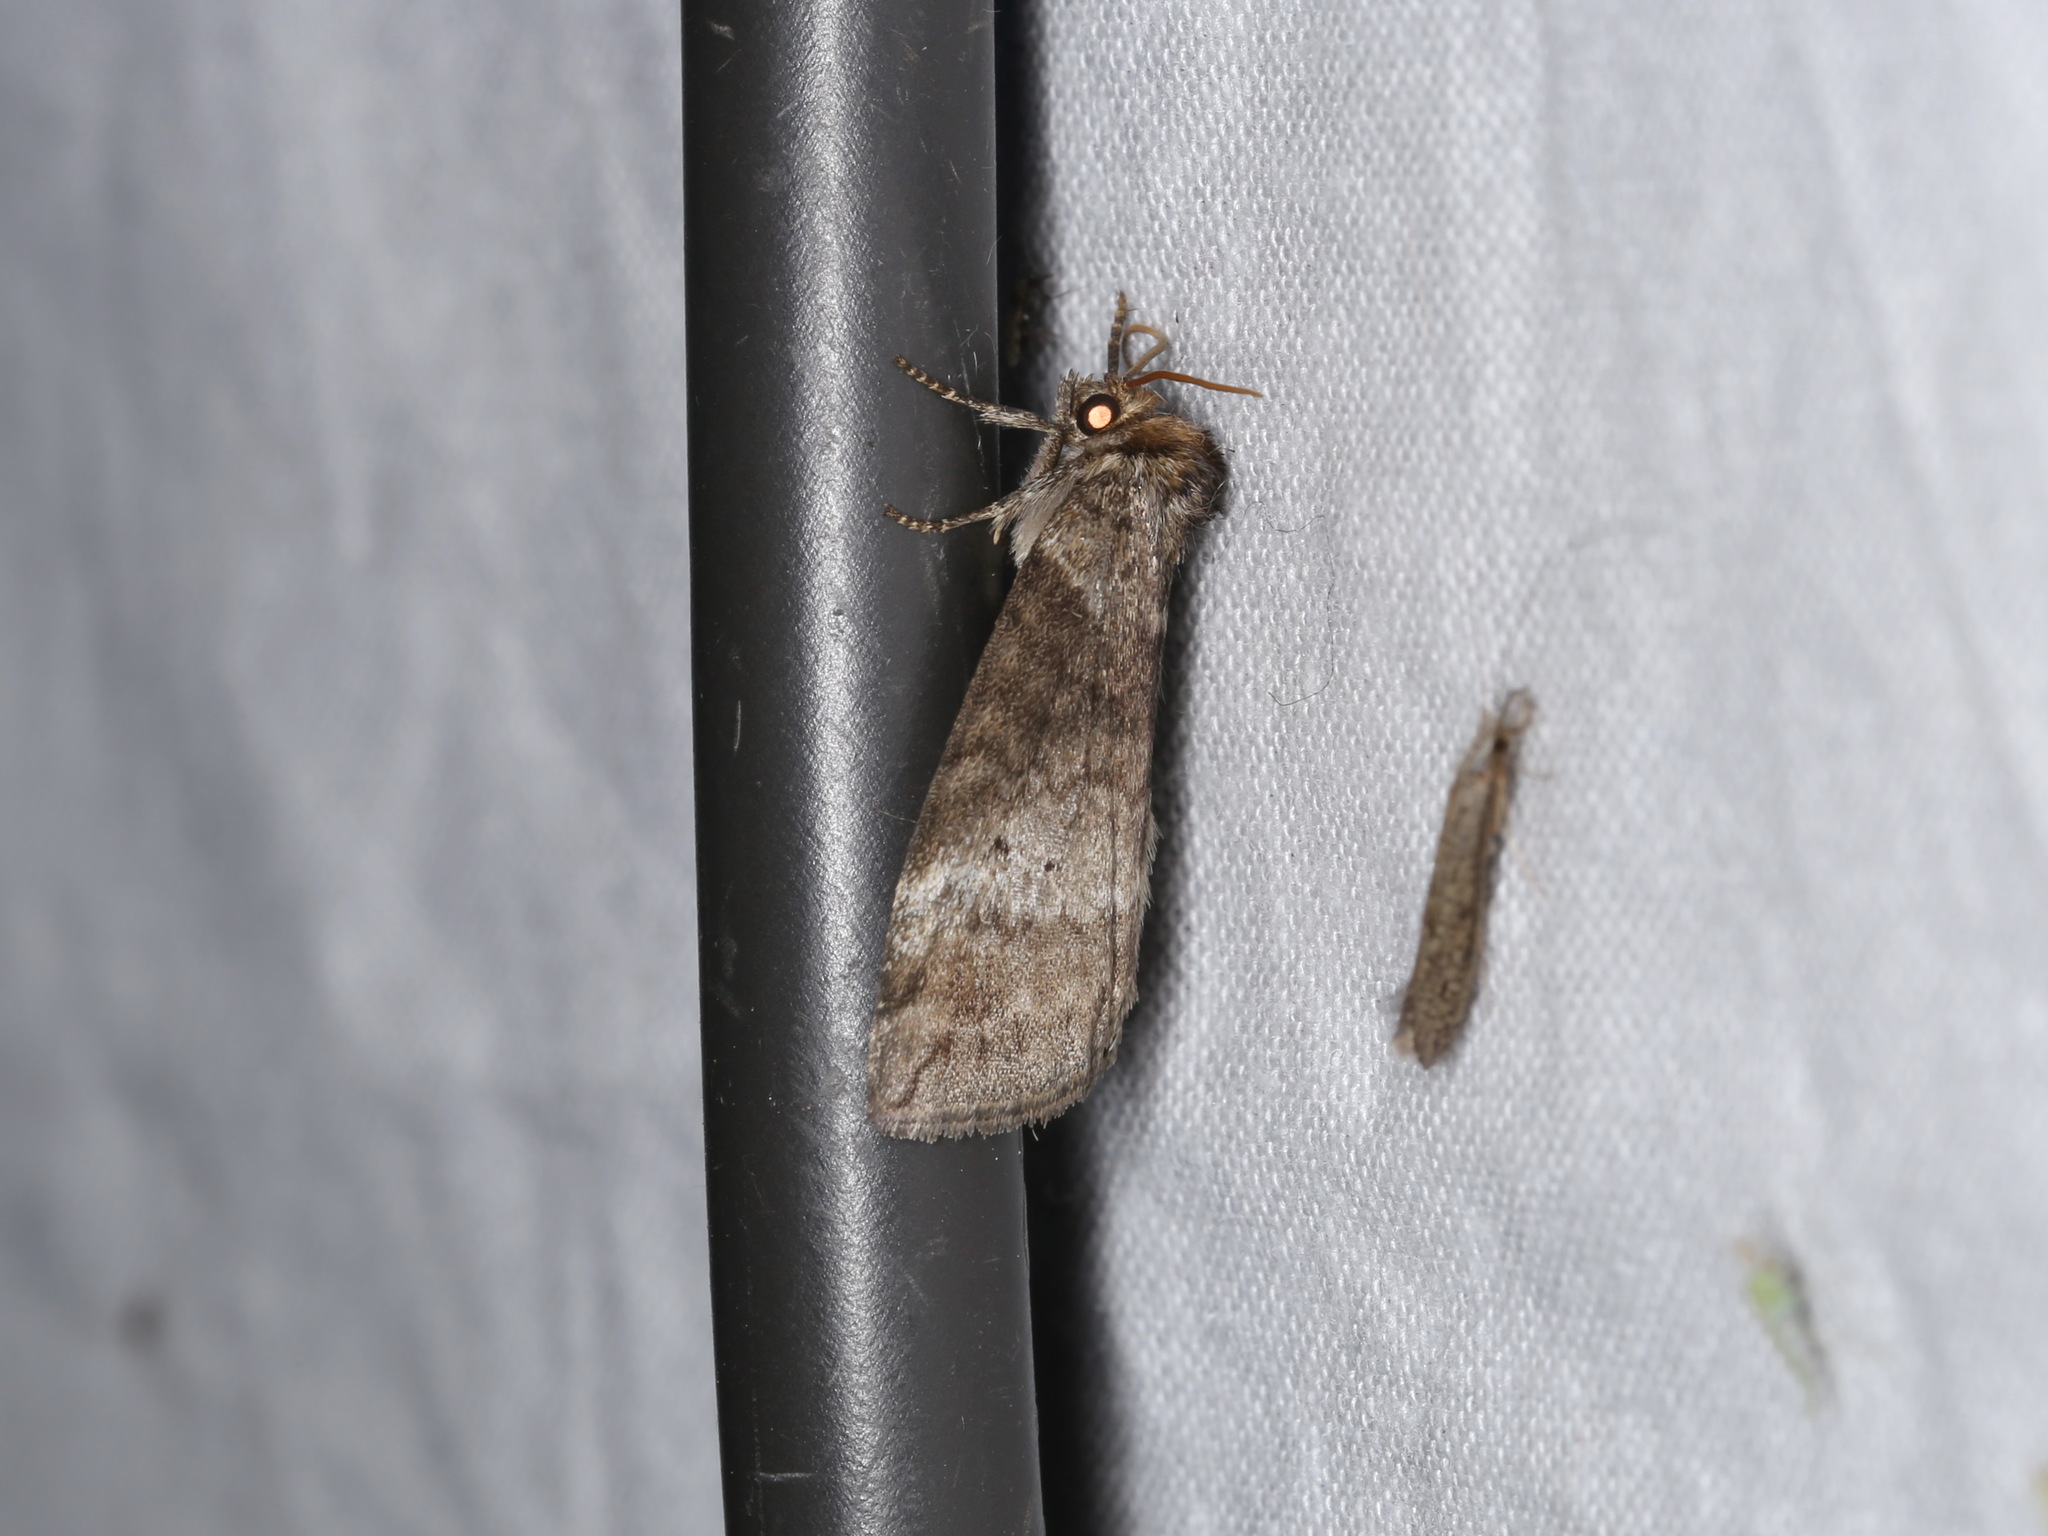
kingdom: Animalia
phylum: Arthropoda
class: Insecta
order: Lepidoptera
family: Drepanidae
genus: Ochropacha
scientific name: Ochropacha duplaris
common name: Common lutestring
